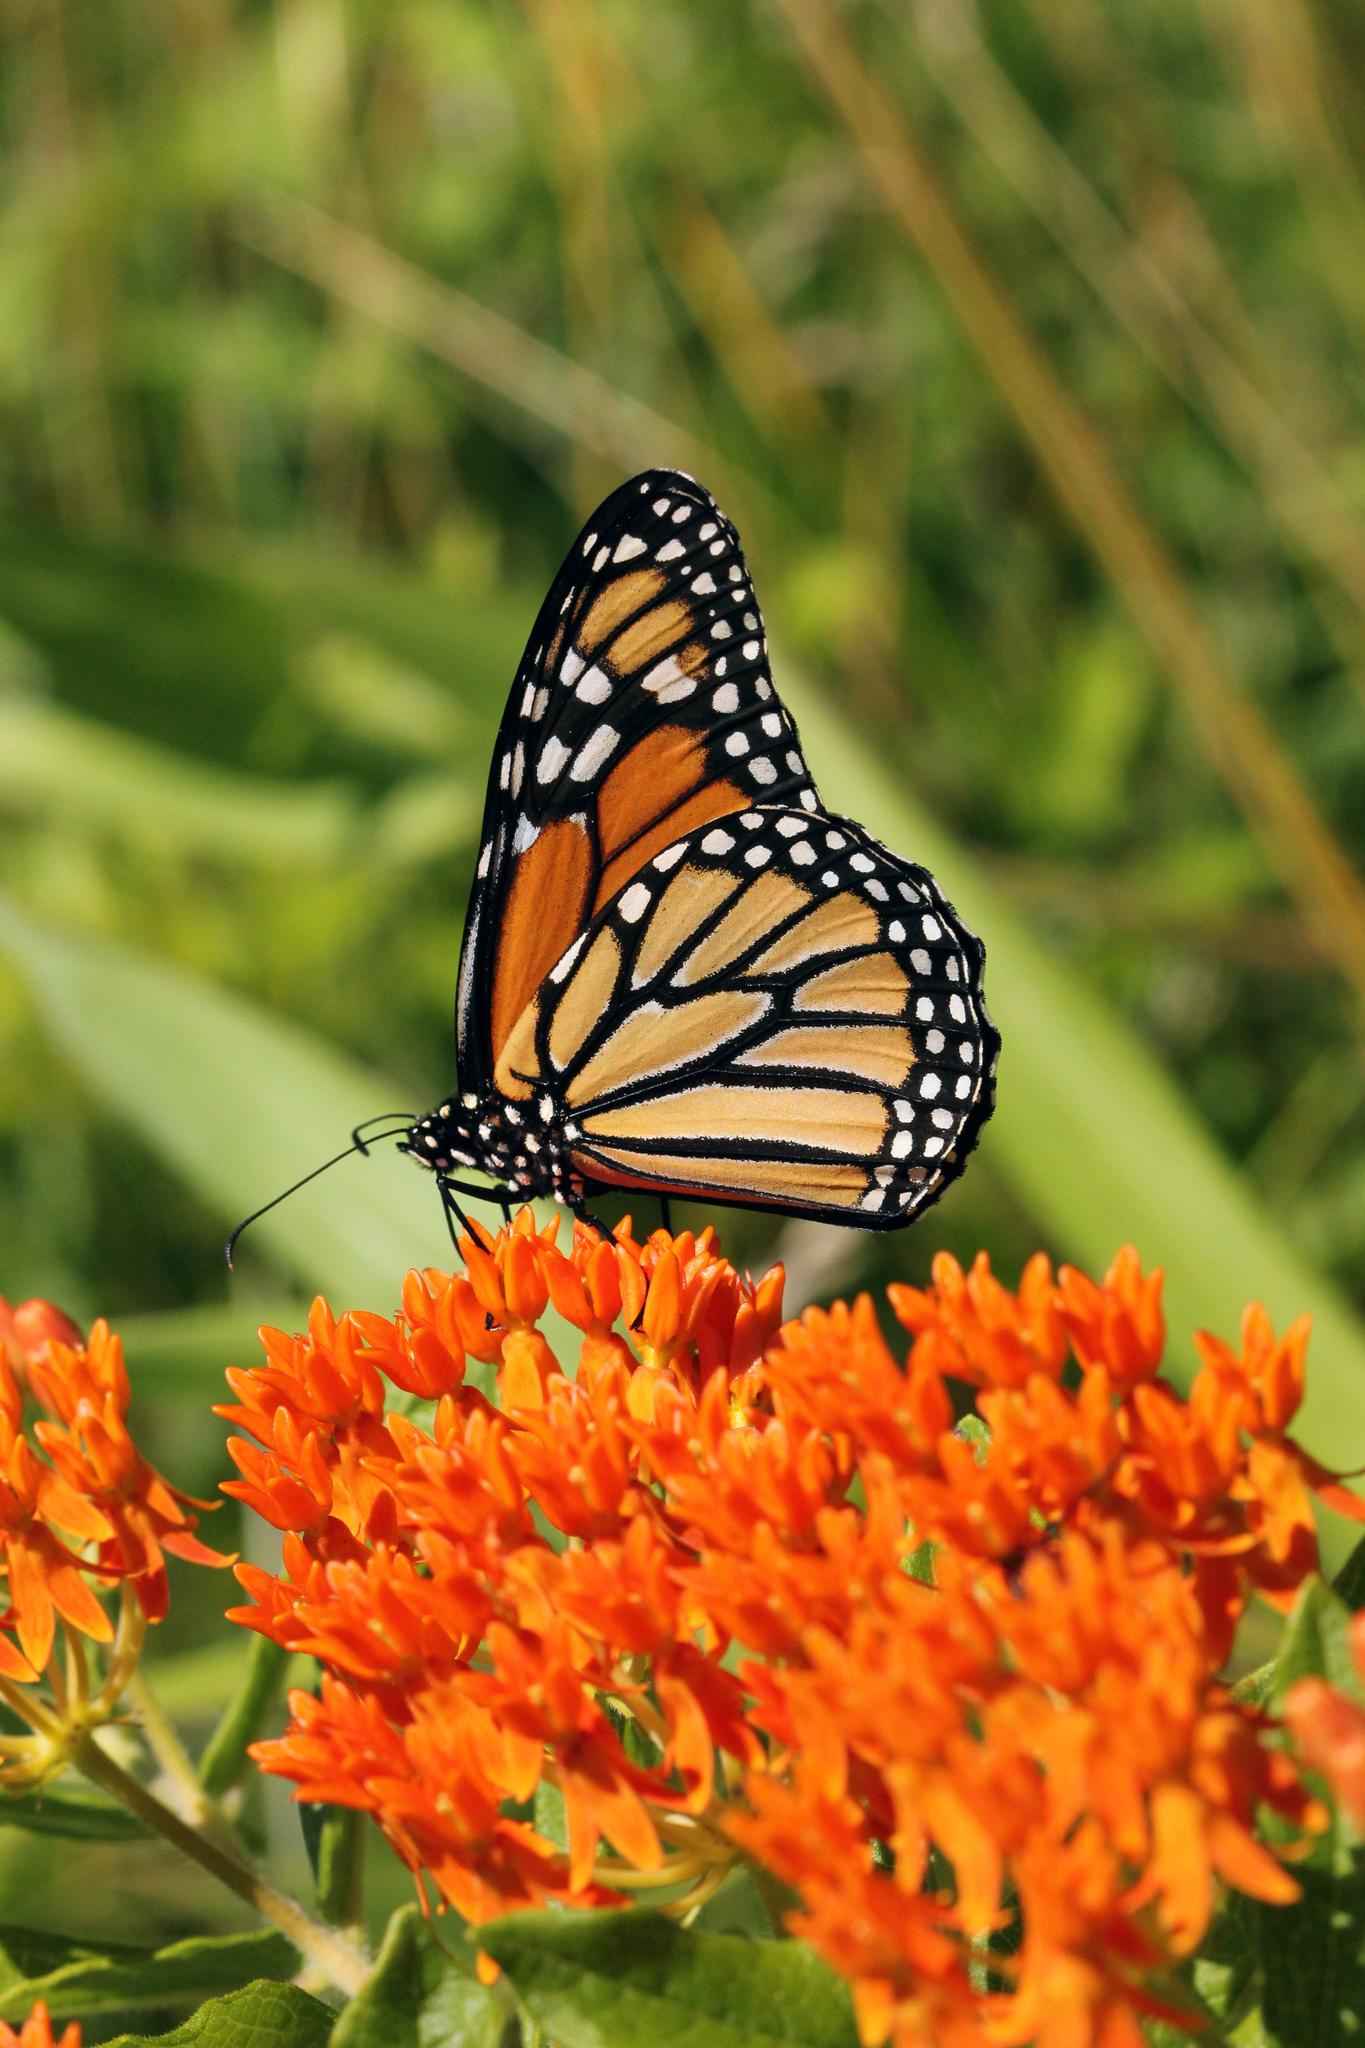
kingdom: Animalia
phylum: Arthropoda
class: Insecta
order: Lepidoptera
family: Nymphalidae
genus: Danaus
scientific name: Danaus plexippus
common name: Monarch
